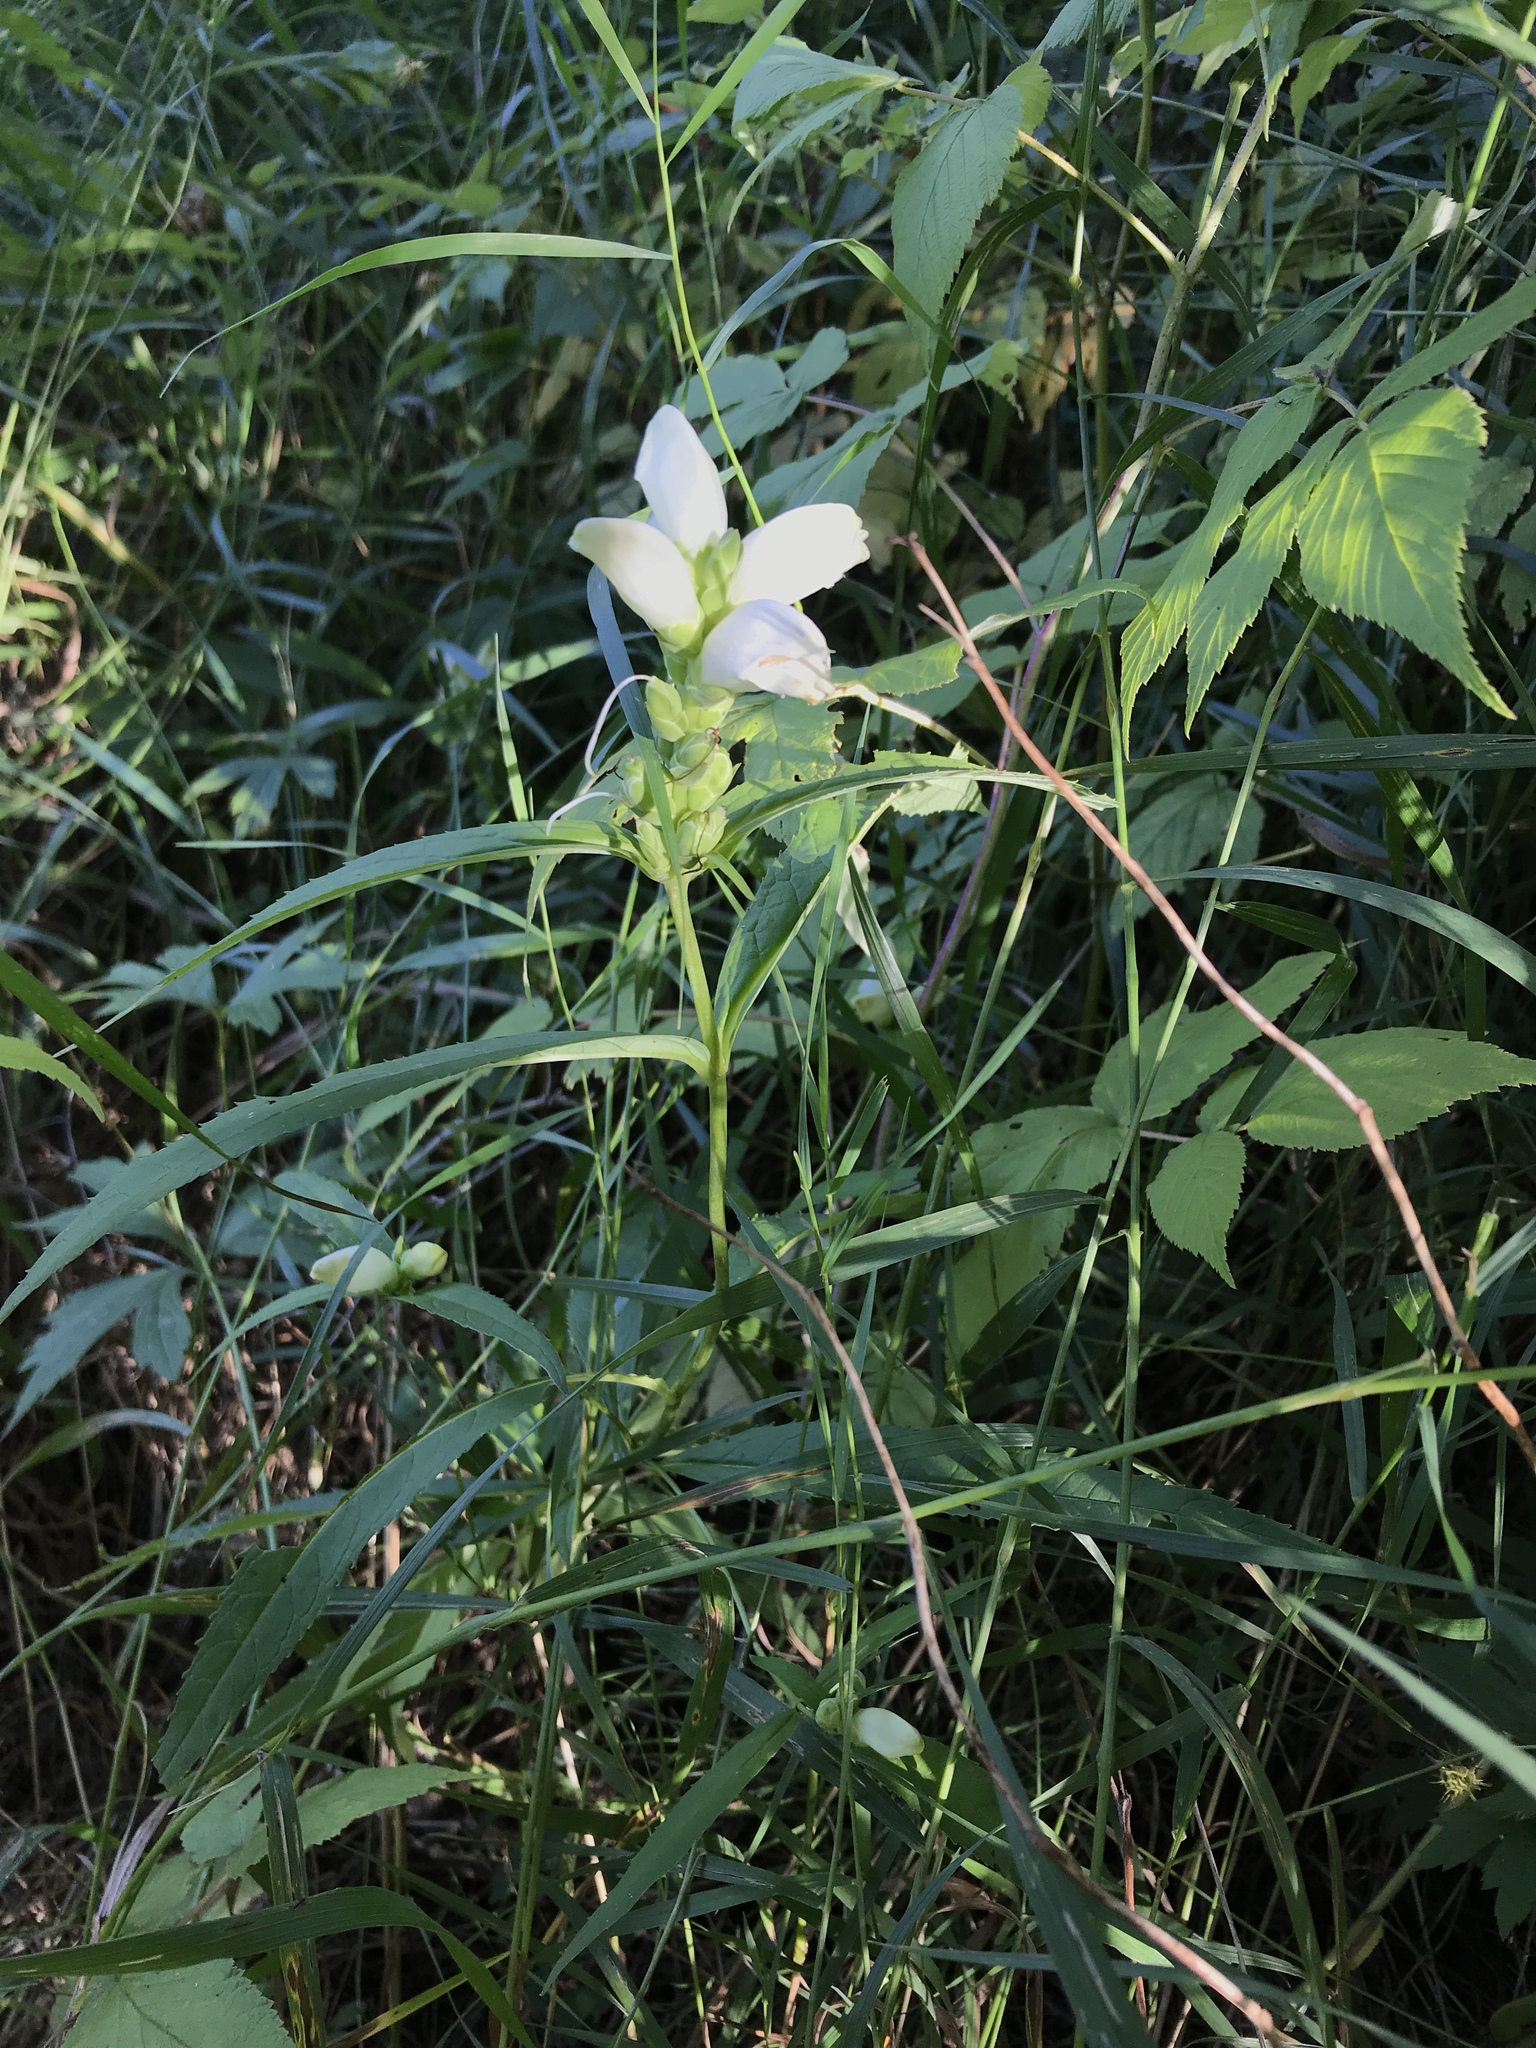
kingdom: Plantae
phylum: Tracheophyta
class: Magnoliopsida
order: Lamiales
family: Plantaginaceae
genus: Chelone
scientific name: Chelone glabra
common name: Snakehead
